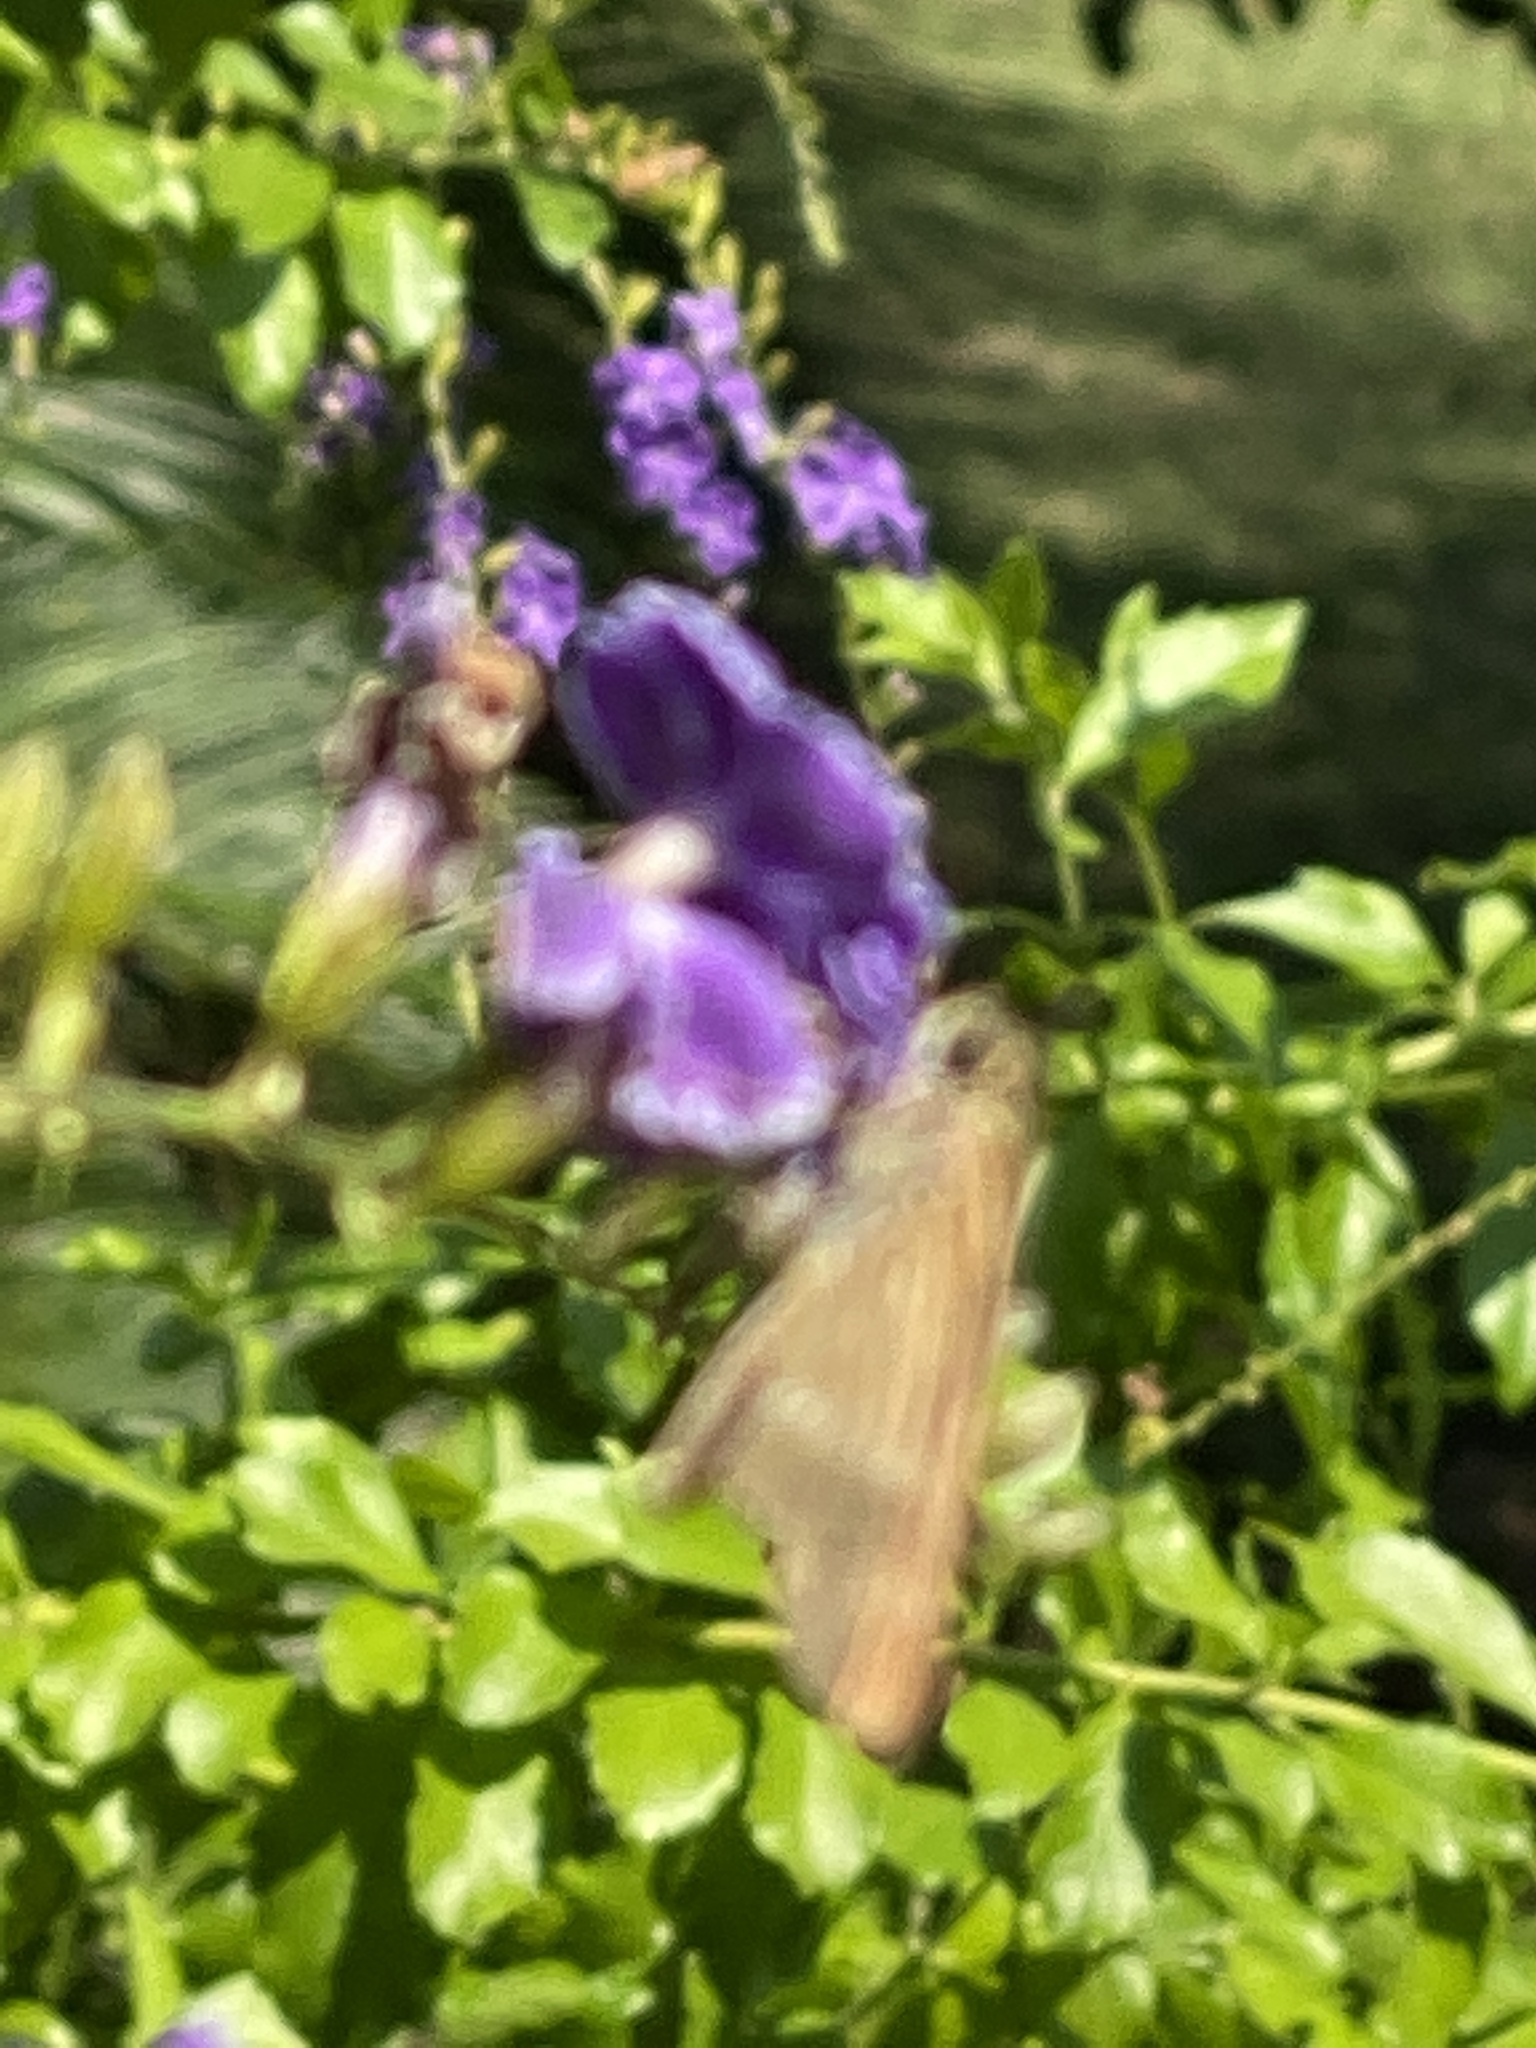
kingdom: Animalia
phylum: Arthropoda
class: Insecta
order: Lepidoptera
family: Hesperiidae
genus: Panoquina
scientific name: Panoquina ocola
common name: Ocola skipper
